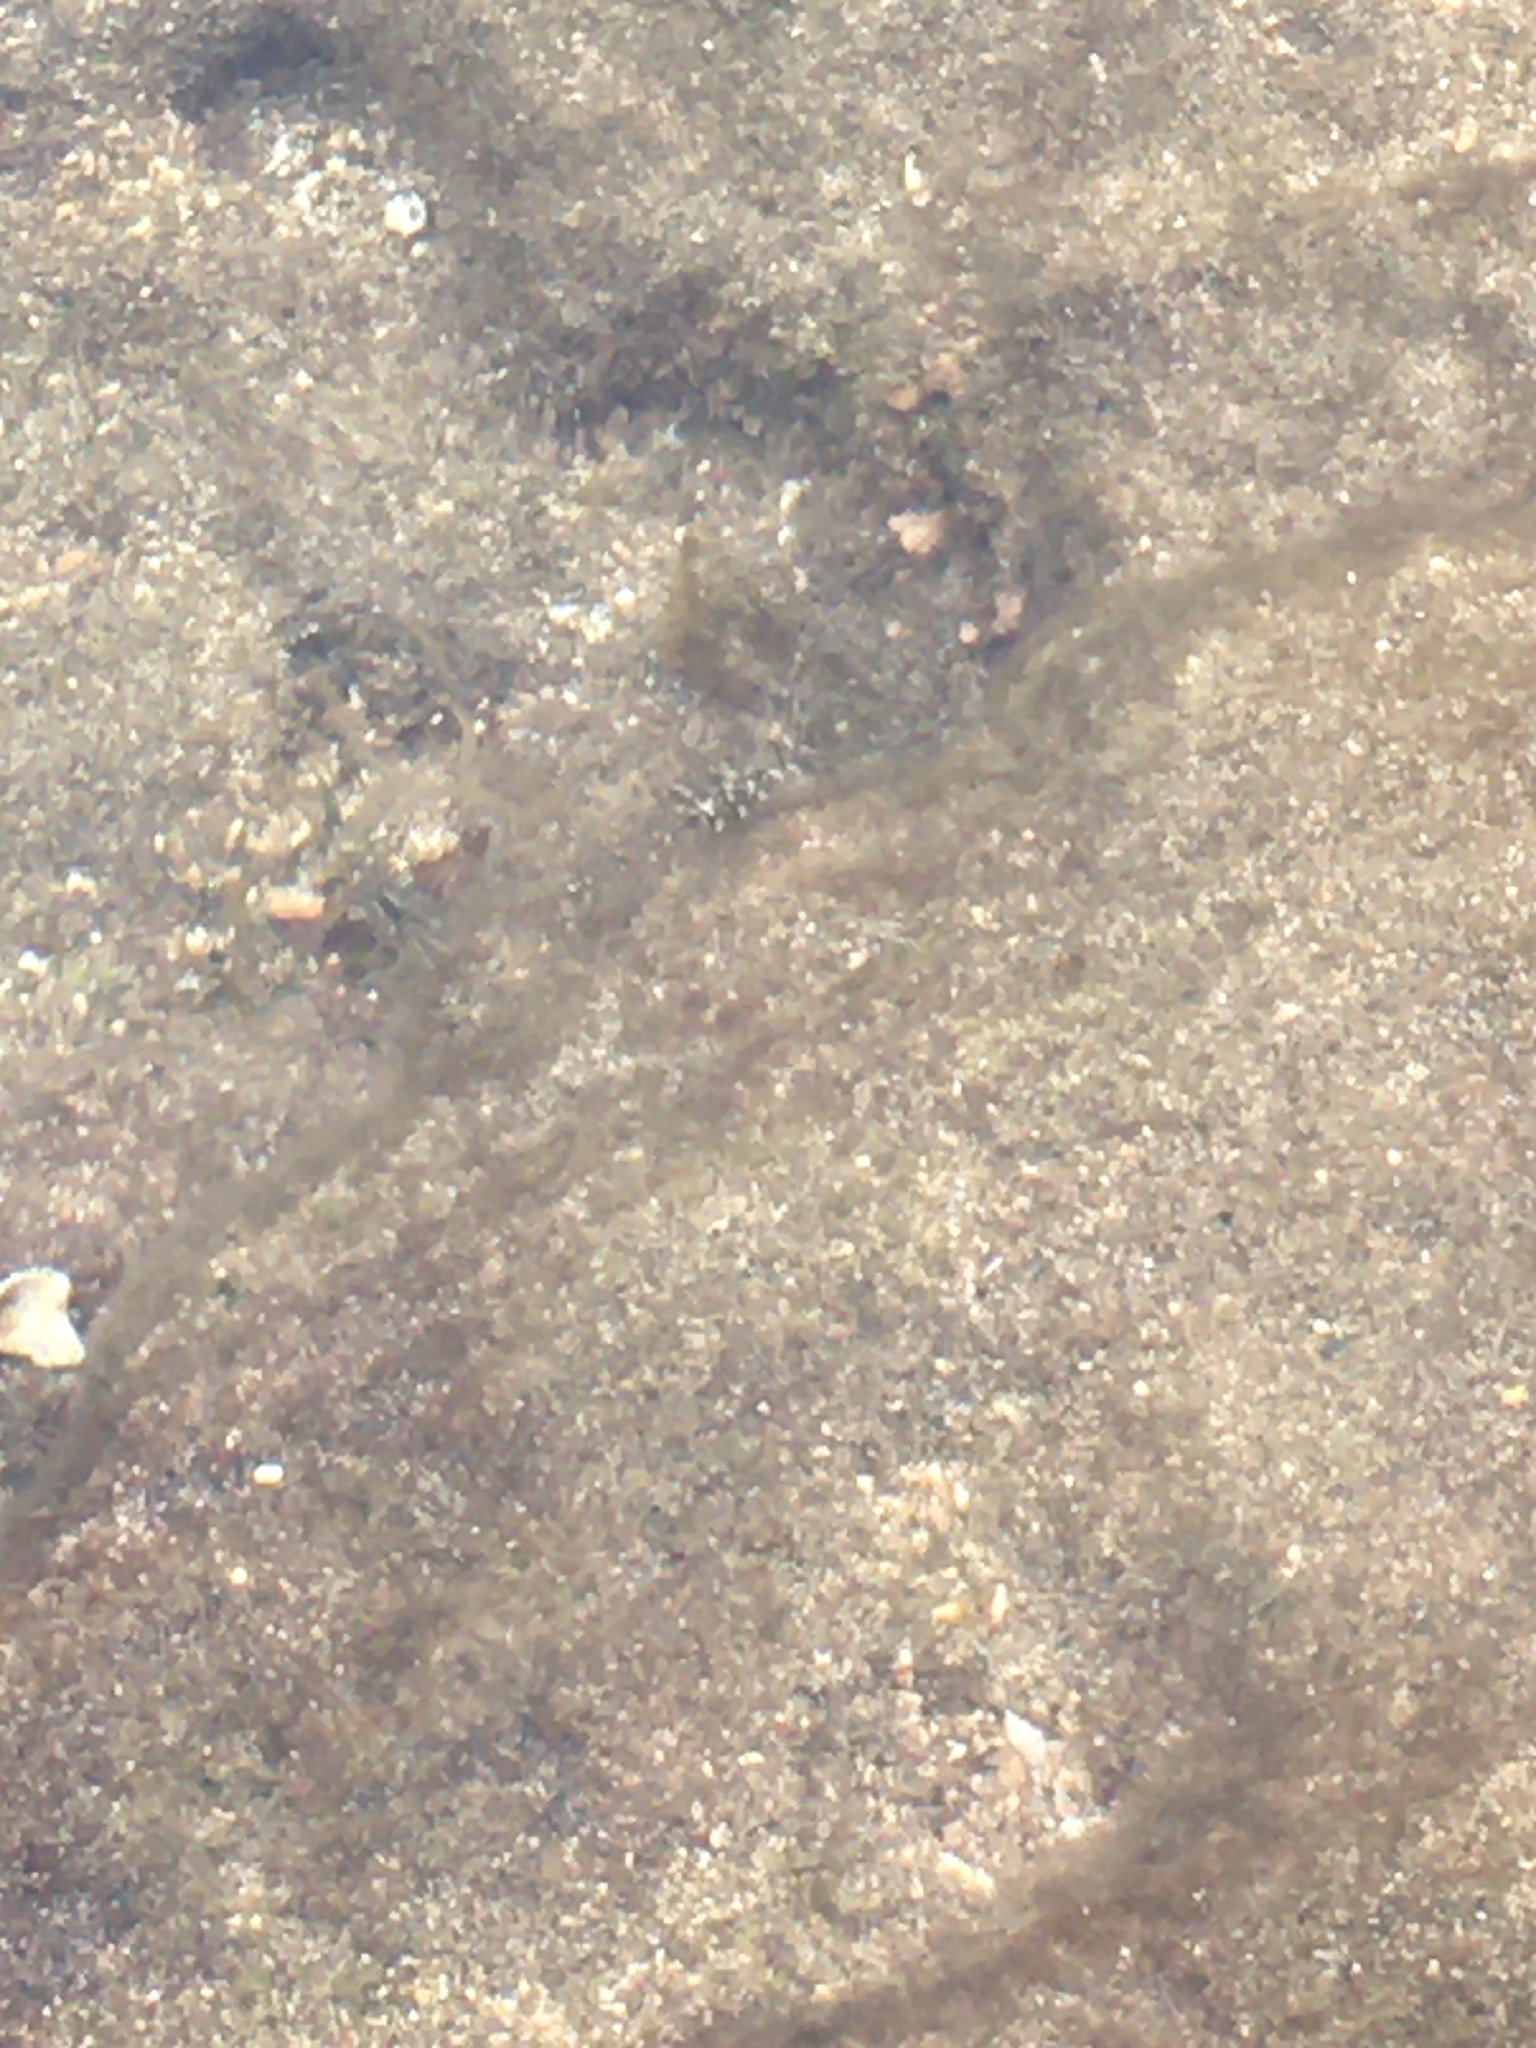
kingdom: Animalia
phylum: Arthropoda
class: Malacostraca
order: Decapoda
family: Palaemonidae
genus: Palaemon
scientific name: Palaemon elegans
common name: Grass prawm
